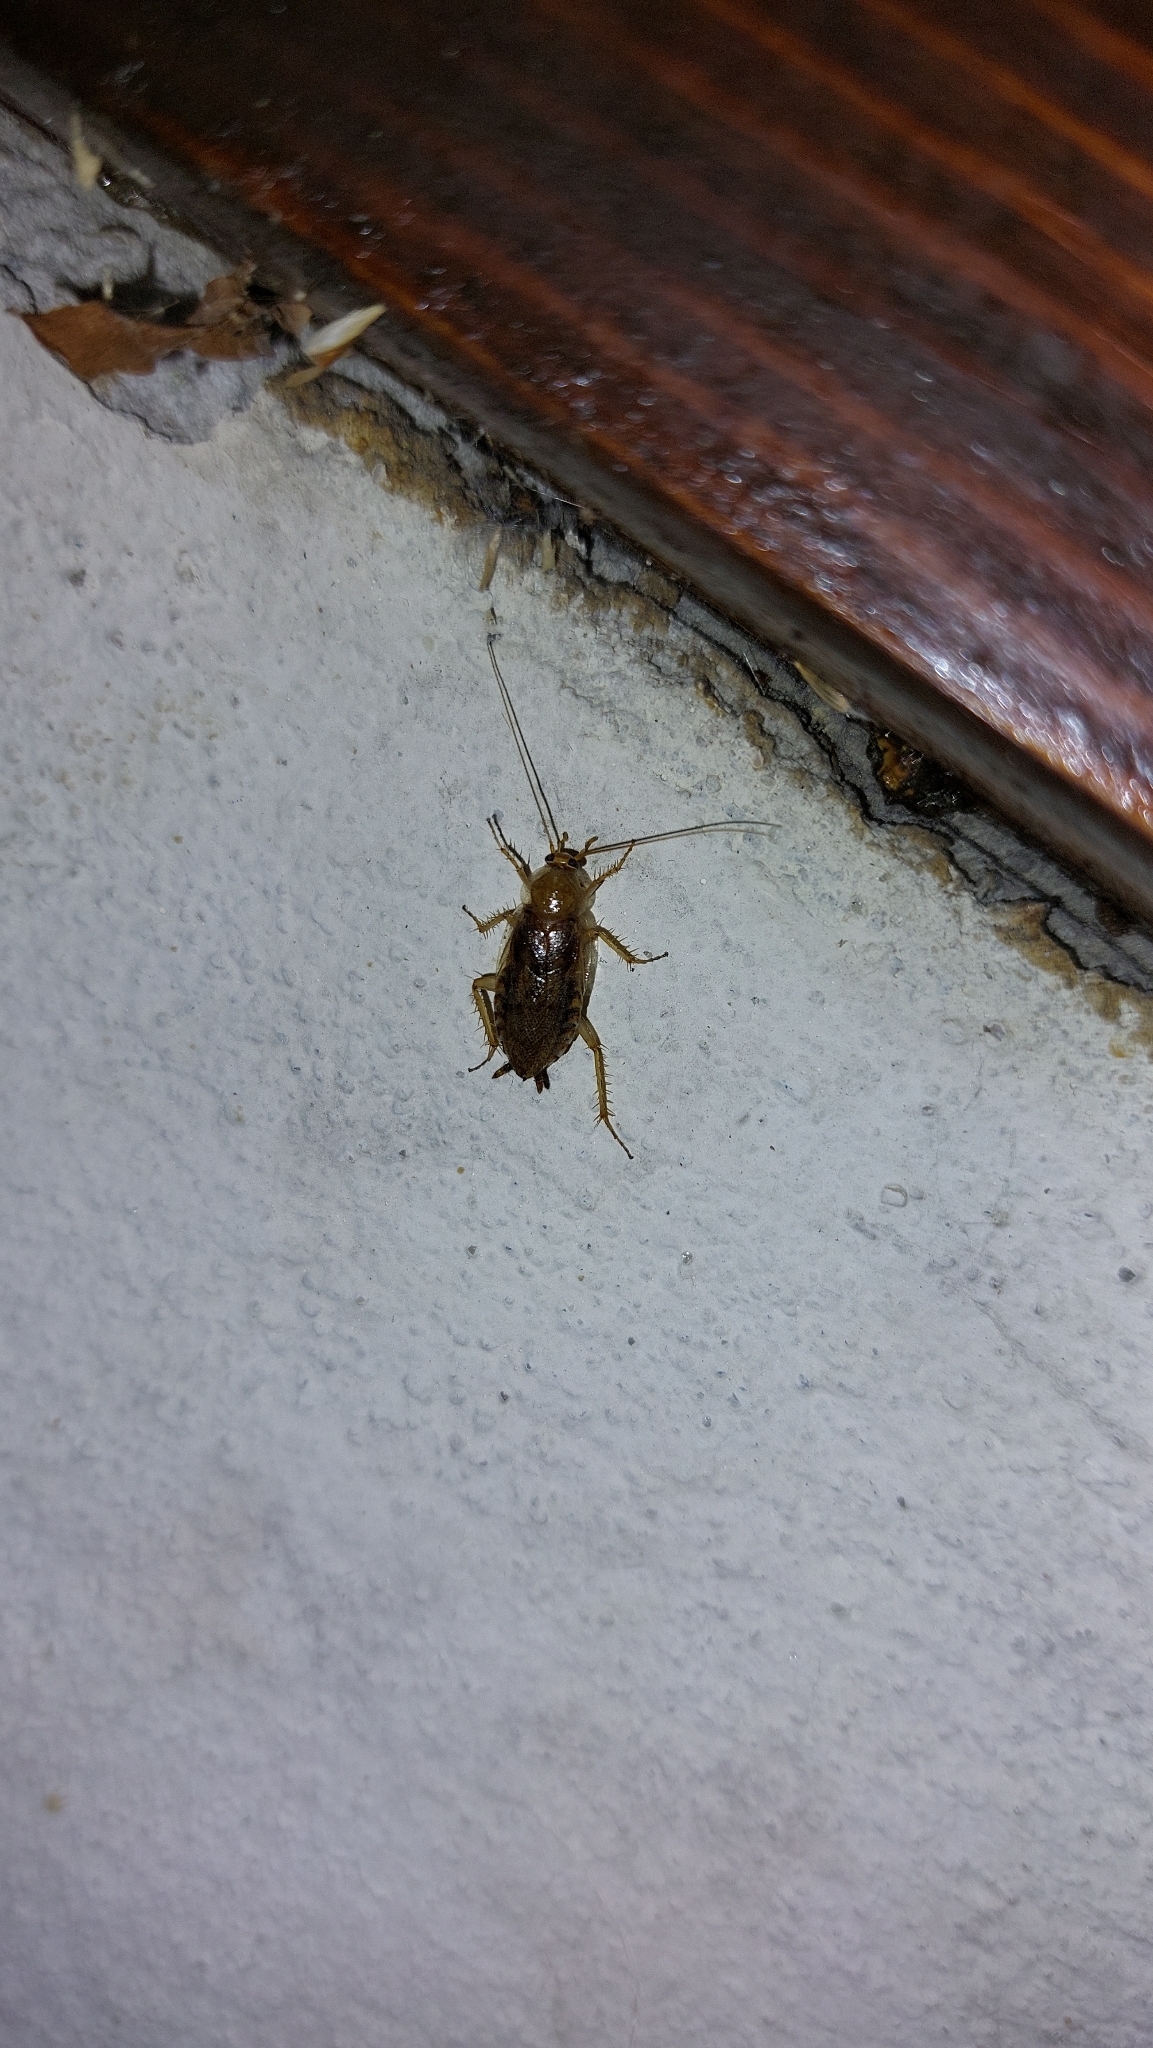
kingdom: Animalia
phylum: Arthropoda
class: Insecta
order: Blattodea
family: Ectobiidae
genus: Ectobius
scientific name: Ectobius vittiventris
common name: Garden cockroach
